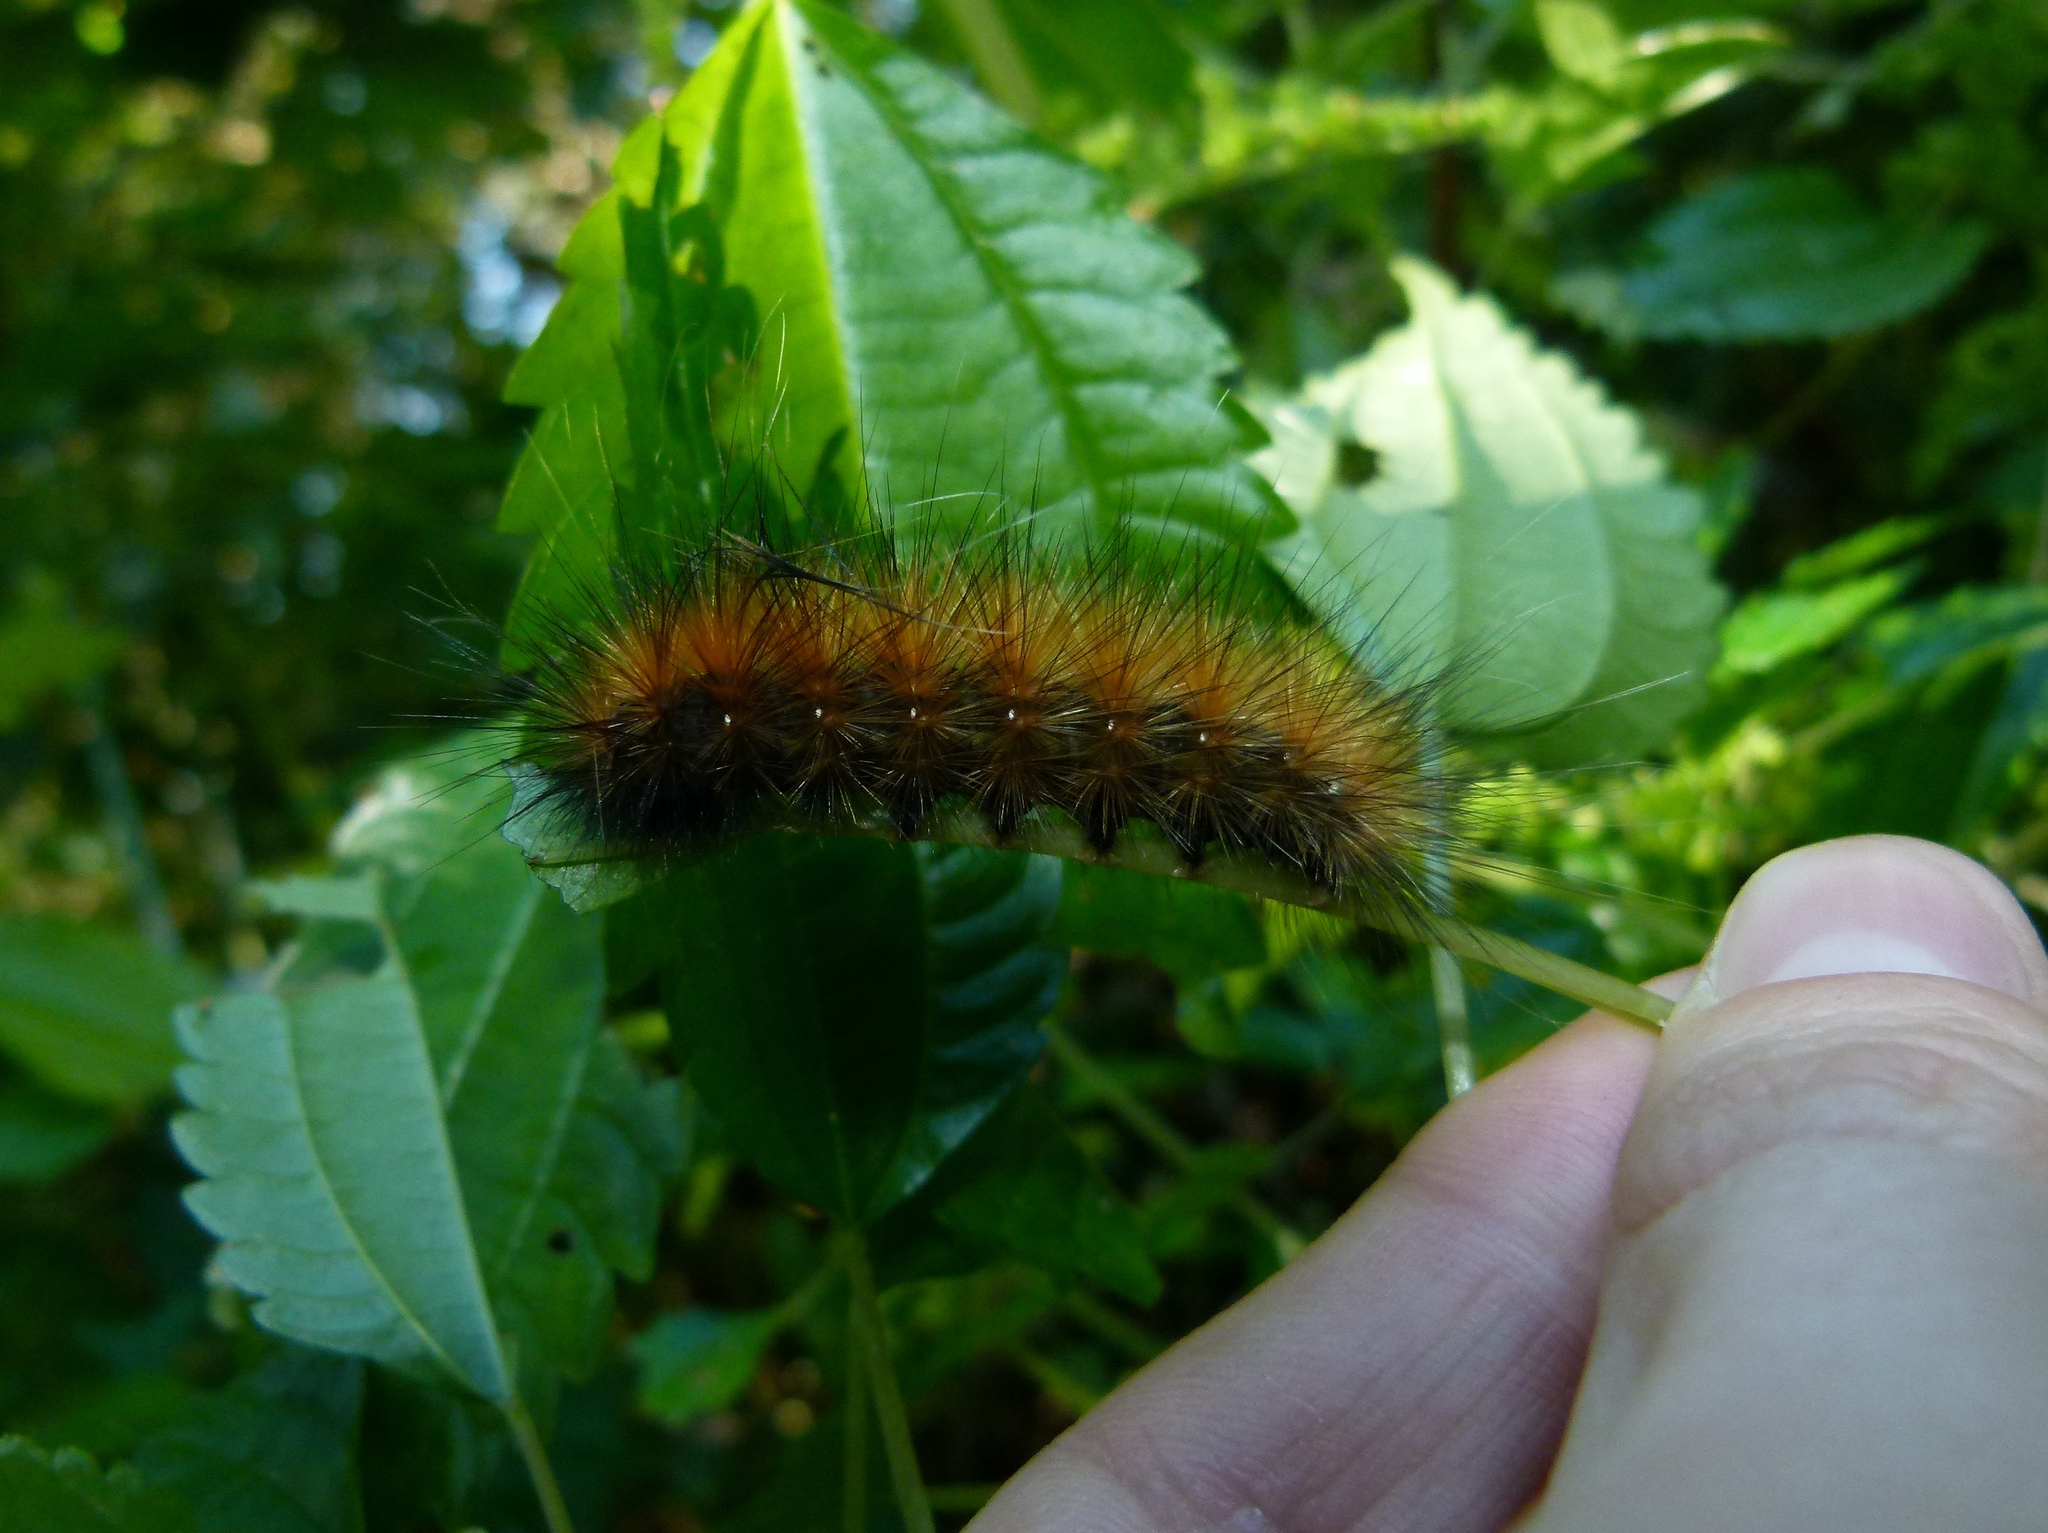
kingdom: Animalia
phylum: Arthropoda
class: Insecta
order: Lepidoptera
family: Erebidae
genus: Spilosoma
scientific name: Spilosoma virginica
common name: Virginia tiger moth
